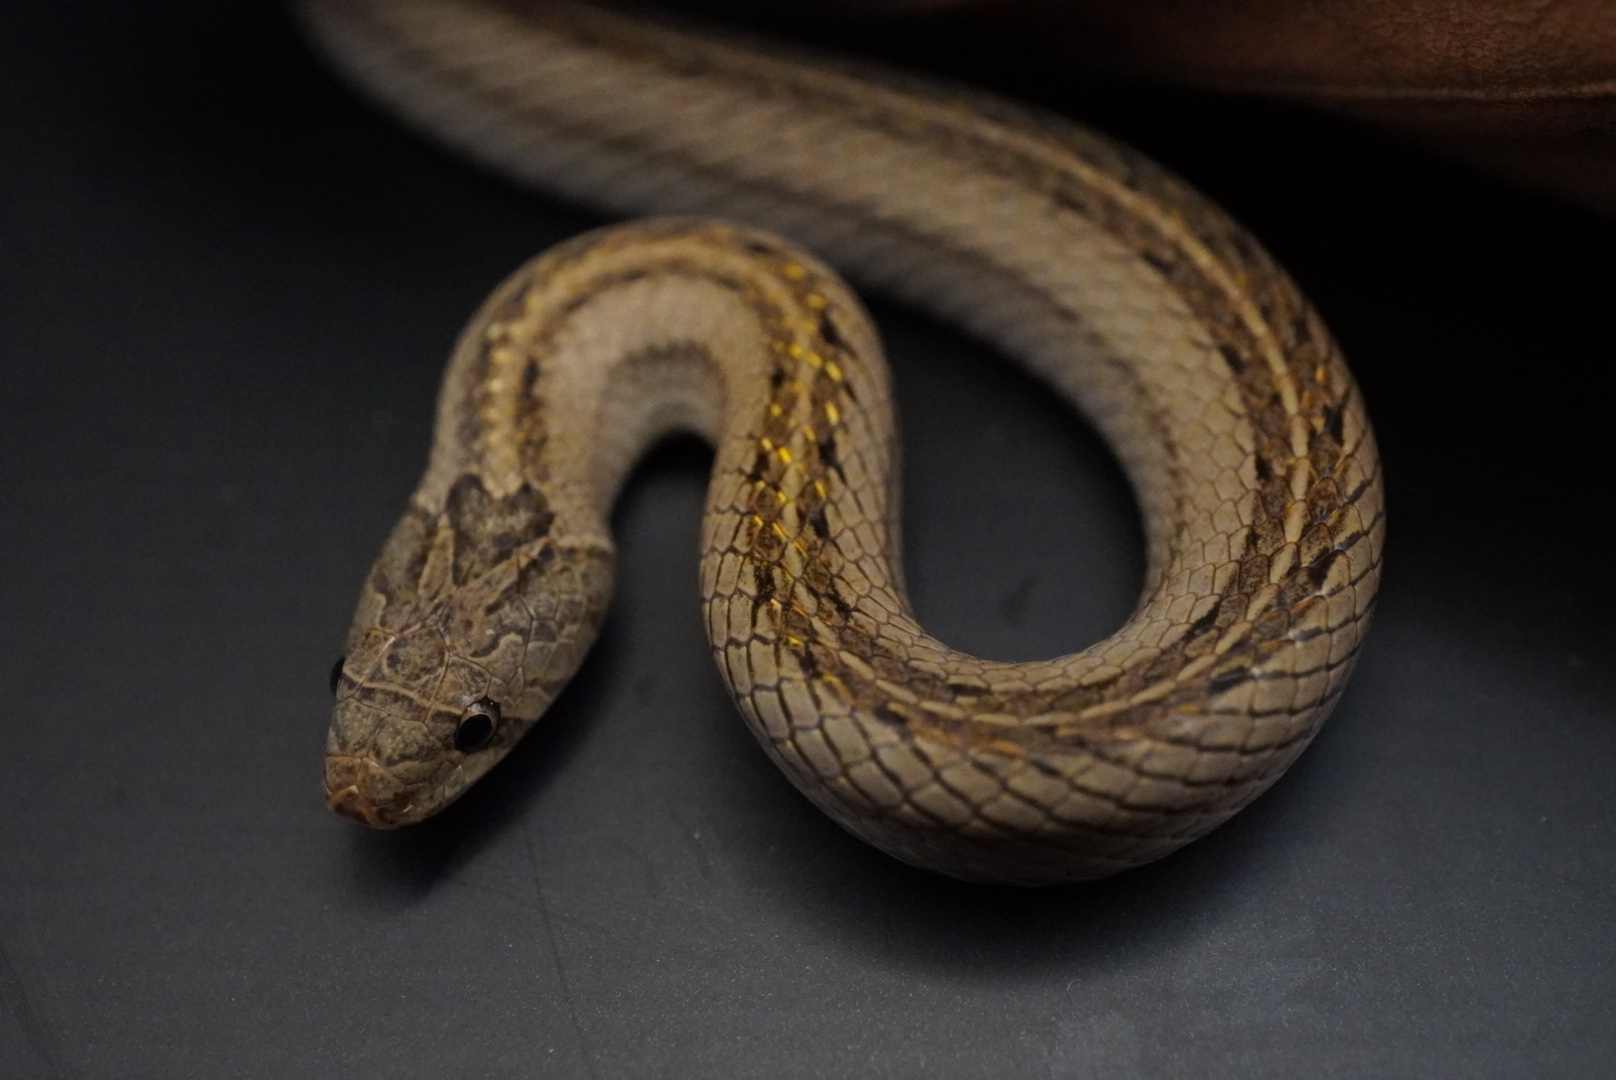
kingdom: Animalia
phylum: Chordata
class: Squamata
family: Colubridae
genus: Oligodon
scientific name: Oligodon taeniatus
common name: Striped kukri snake
